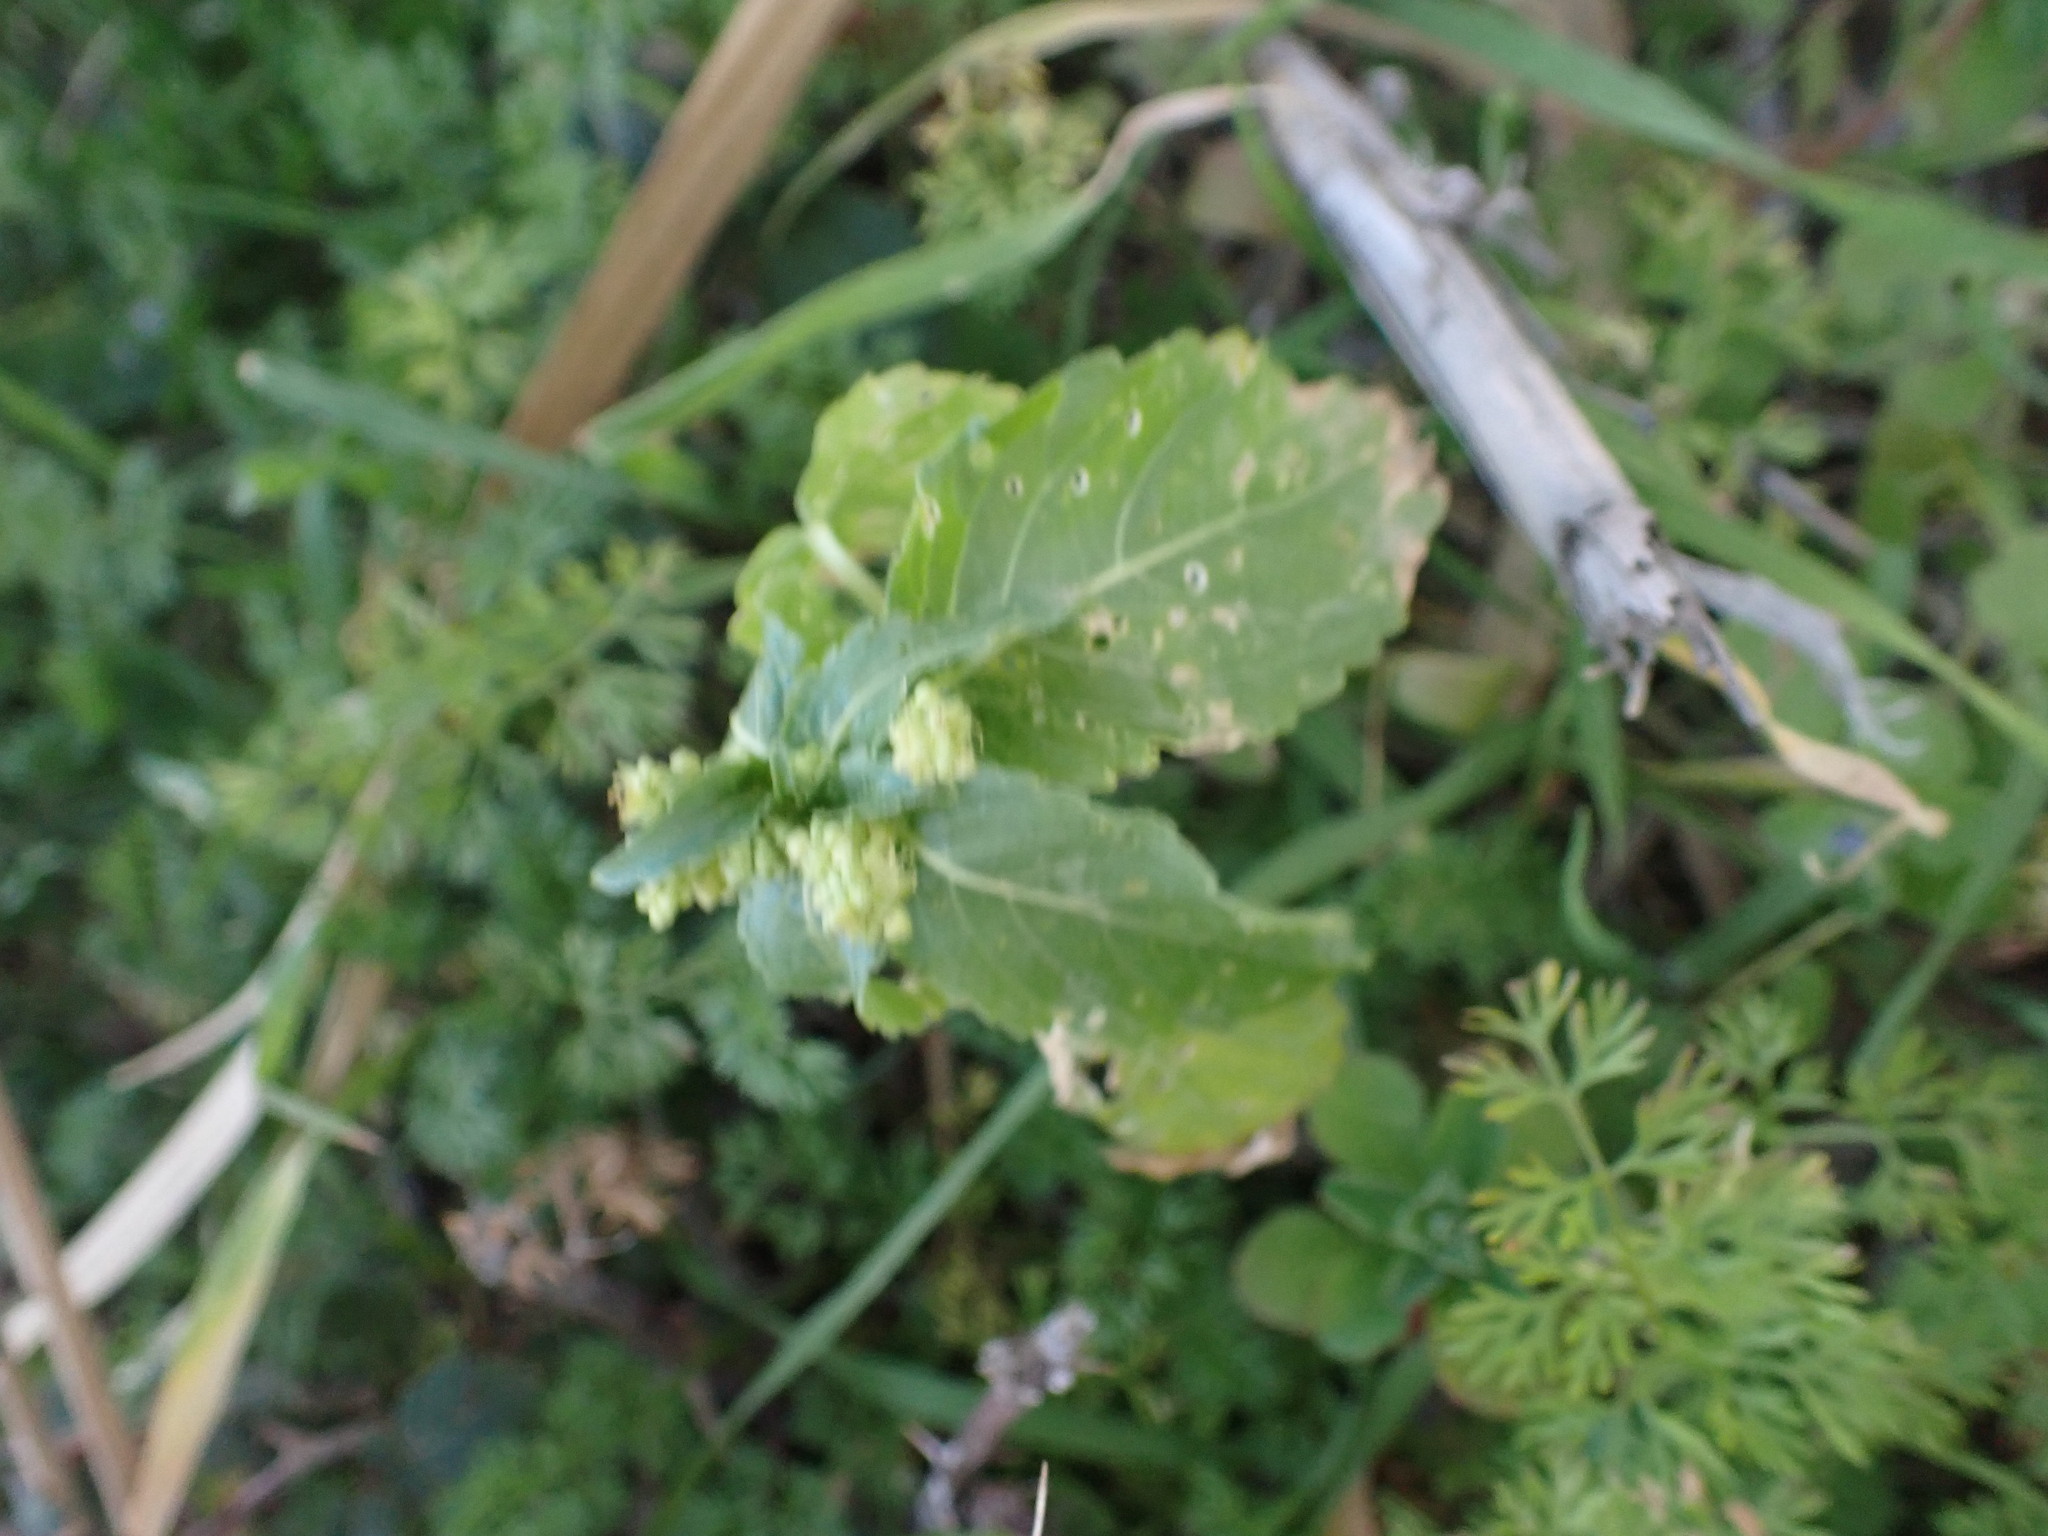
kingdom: Plantae
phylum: Tracheophyta
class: Magnoliopsida
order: Malpighiales
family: Euphorbiaceae
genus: Mercurialis
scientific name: Mercurialis annua
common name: Annual mercury
